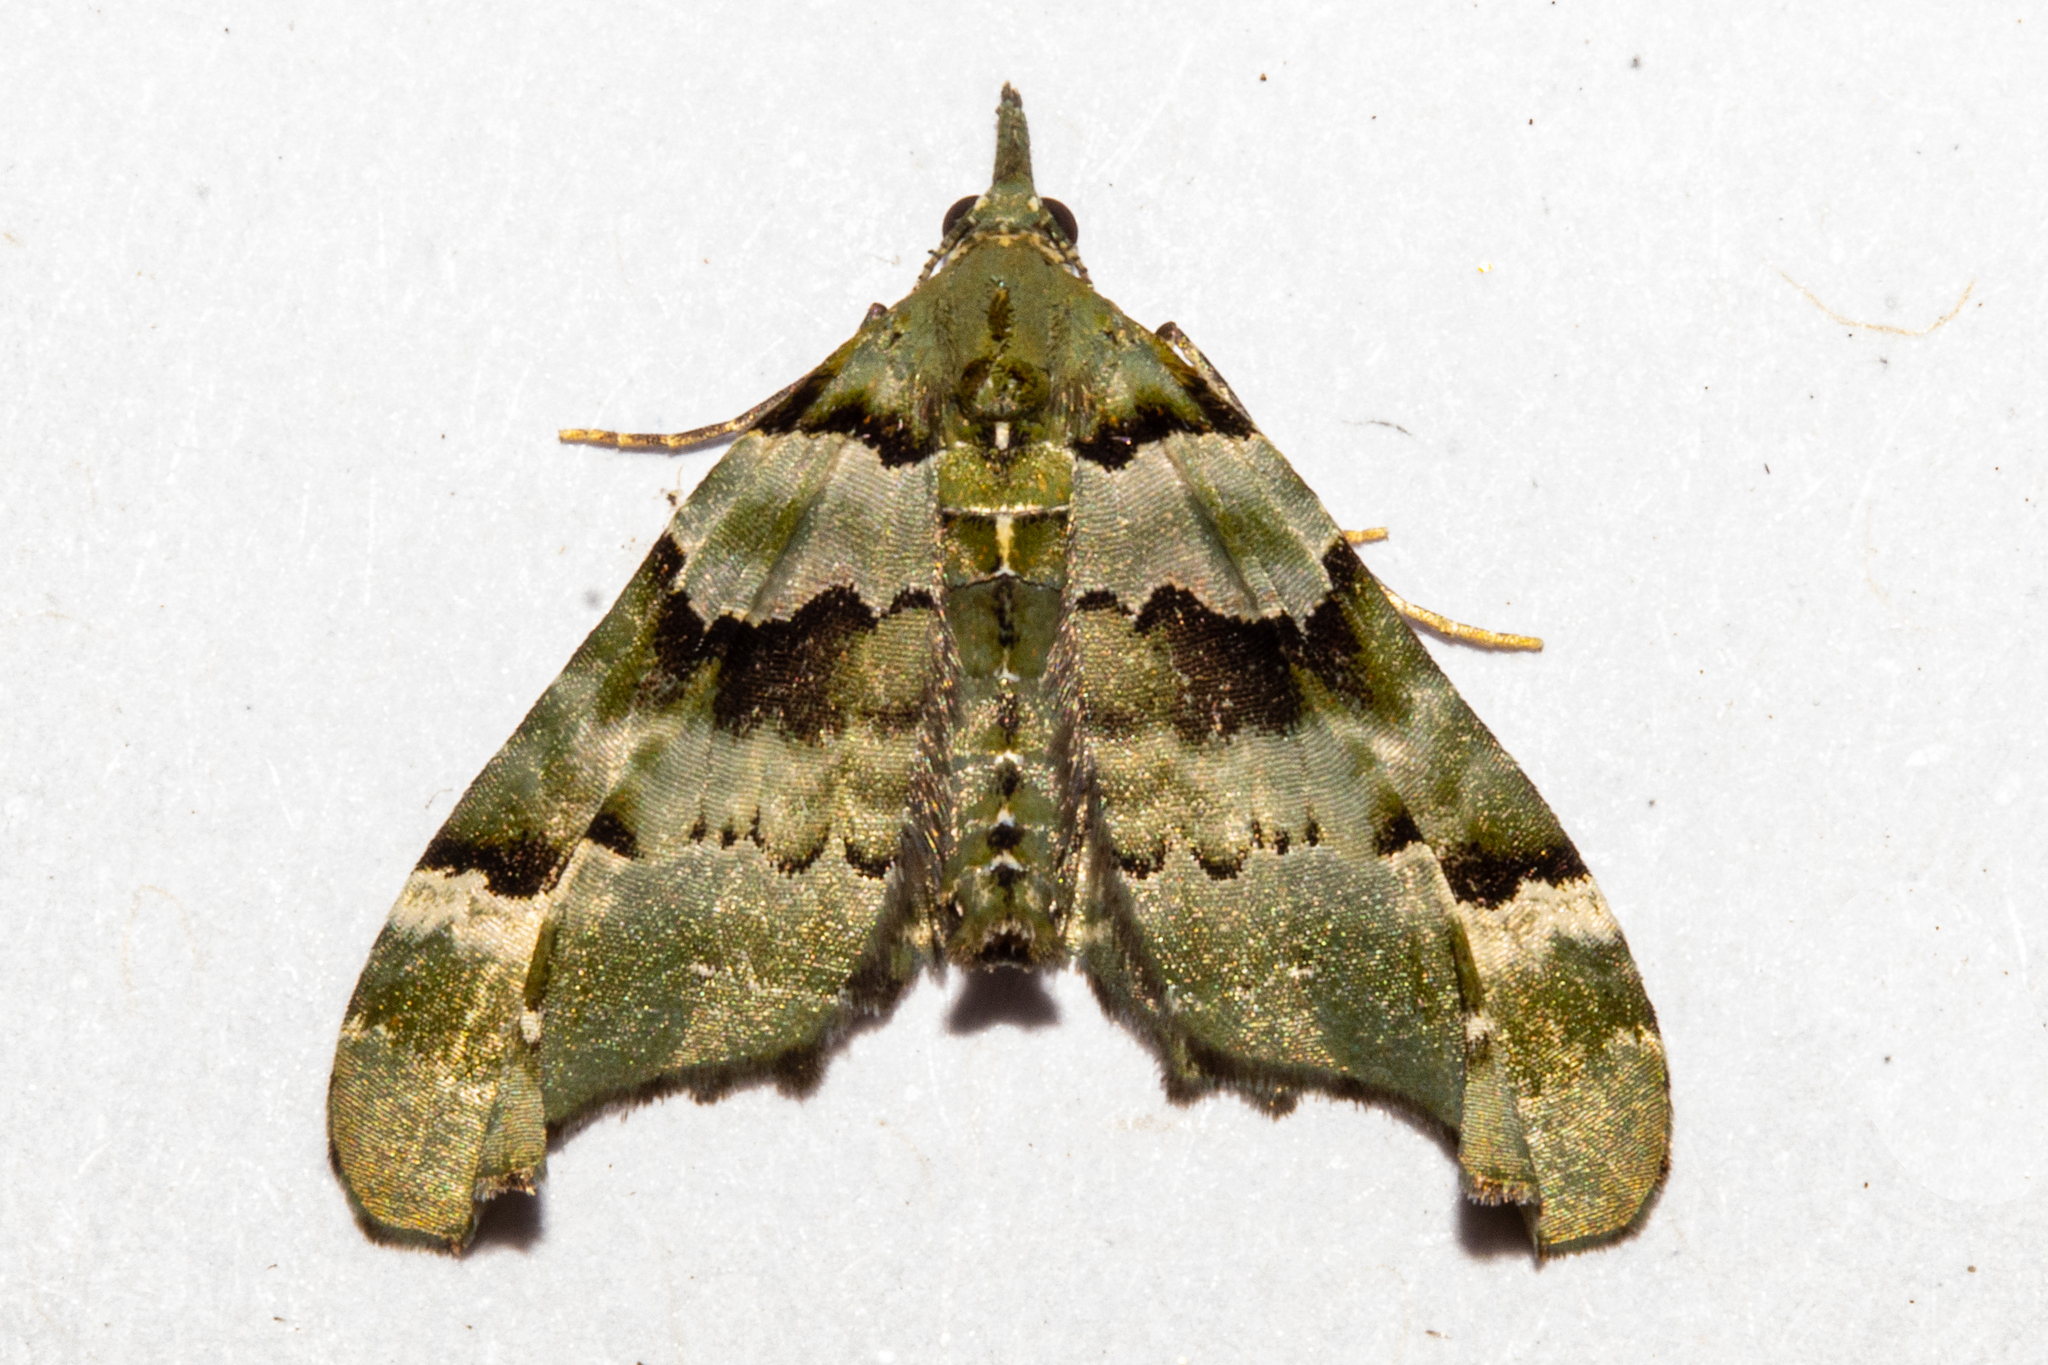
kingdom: Animalia
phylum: Arthropoda
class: Insecta
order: Lepidoptera
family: Geometridae
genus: Elvia
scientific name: Elvia glaucata
